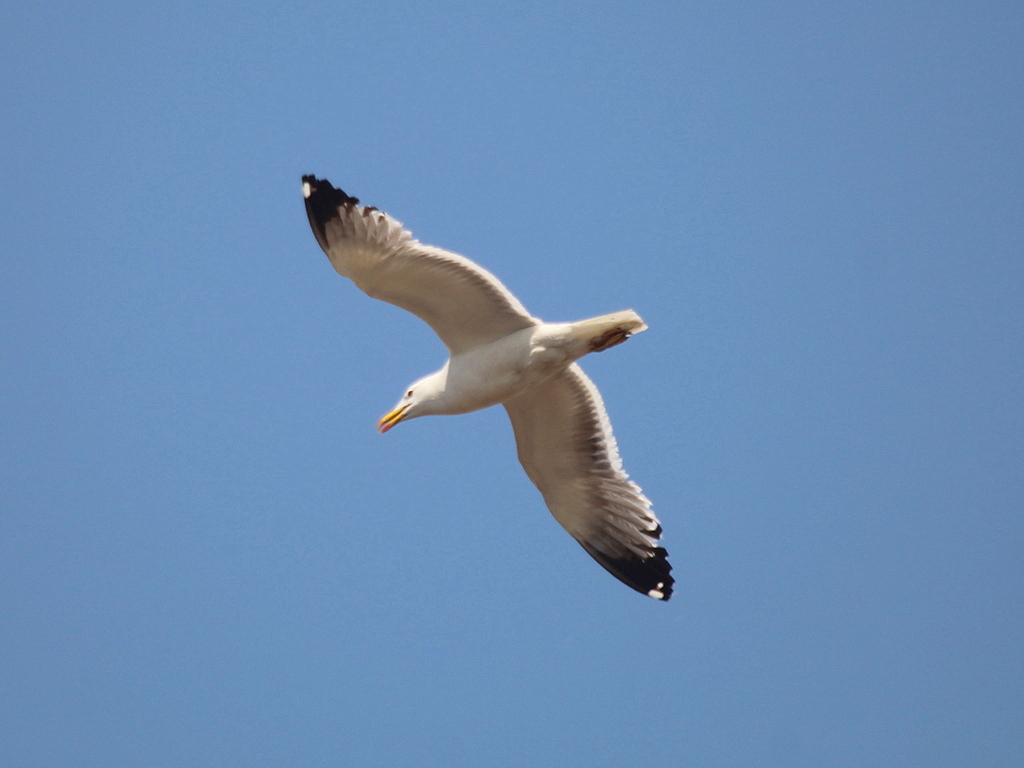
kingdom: Animalia
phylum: Chordata
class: Aves
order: Charadriiformes
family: Laridae
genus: Larus
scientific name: Larus fuscus
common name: Lesser black-backed gull
